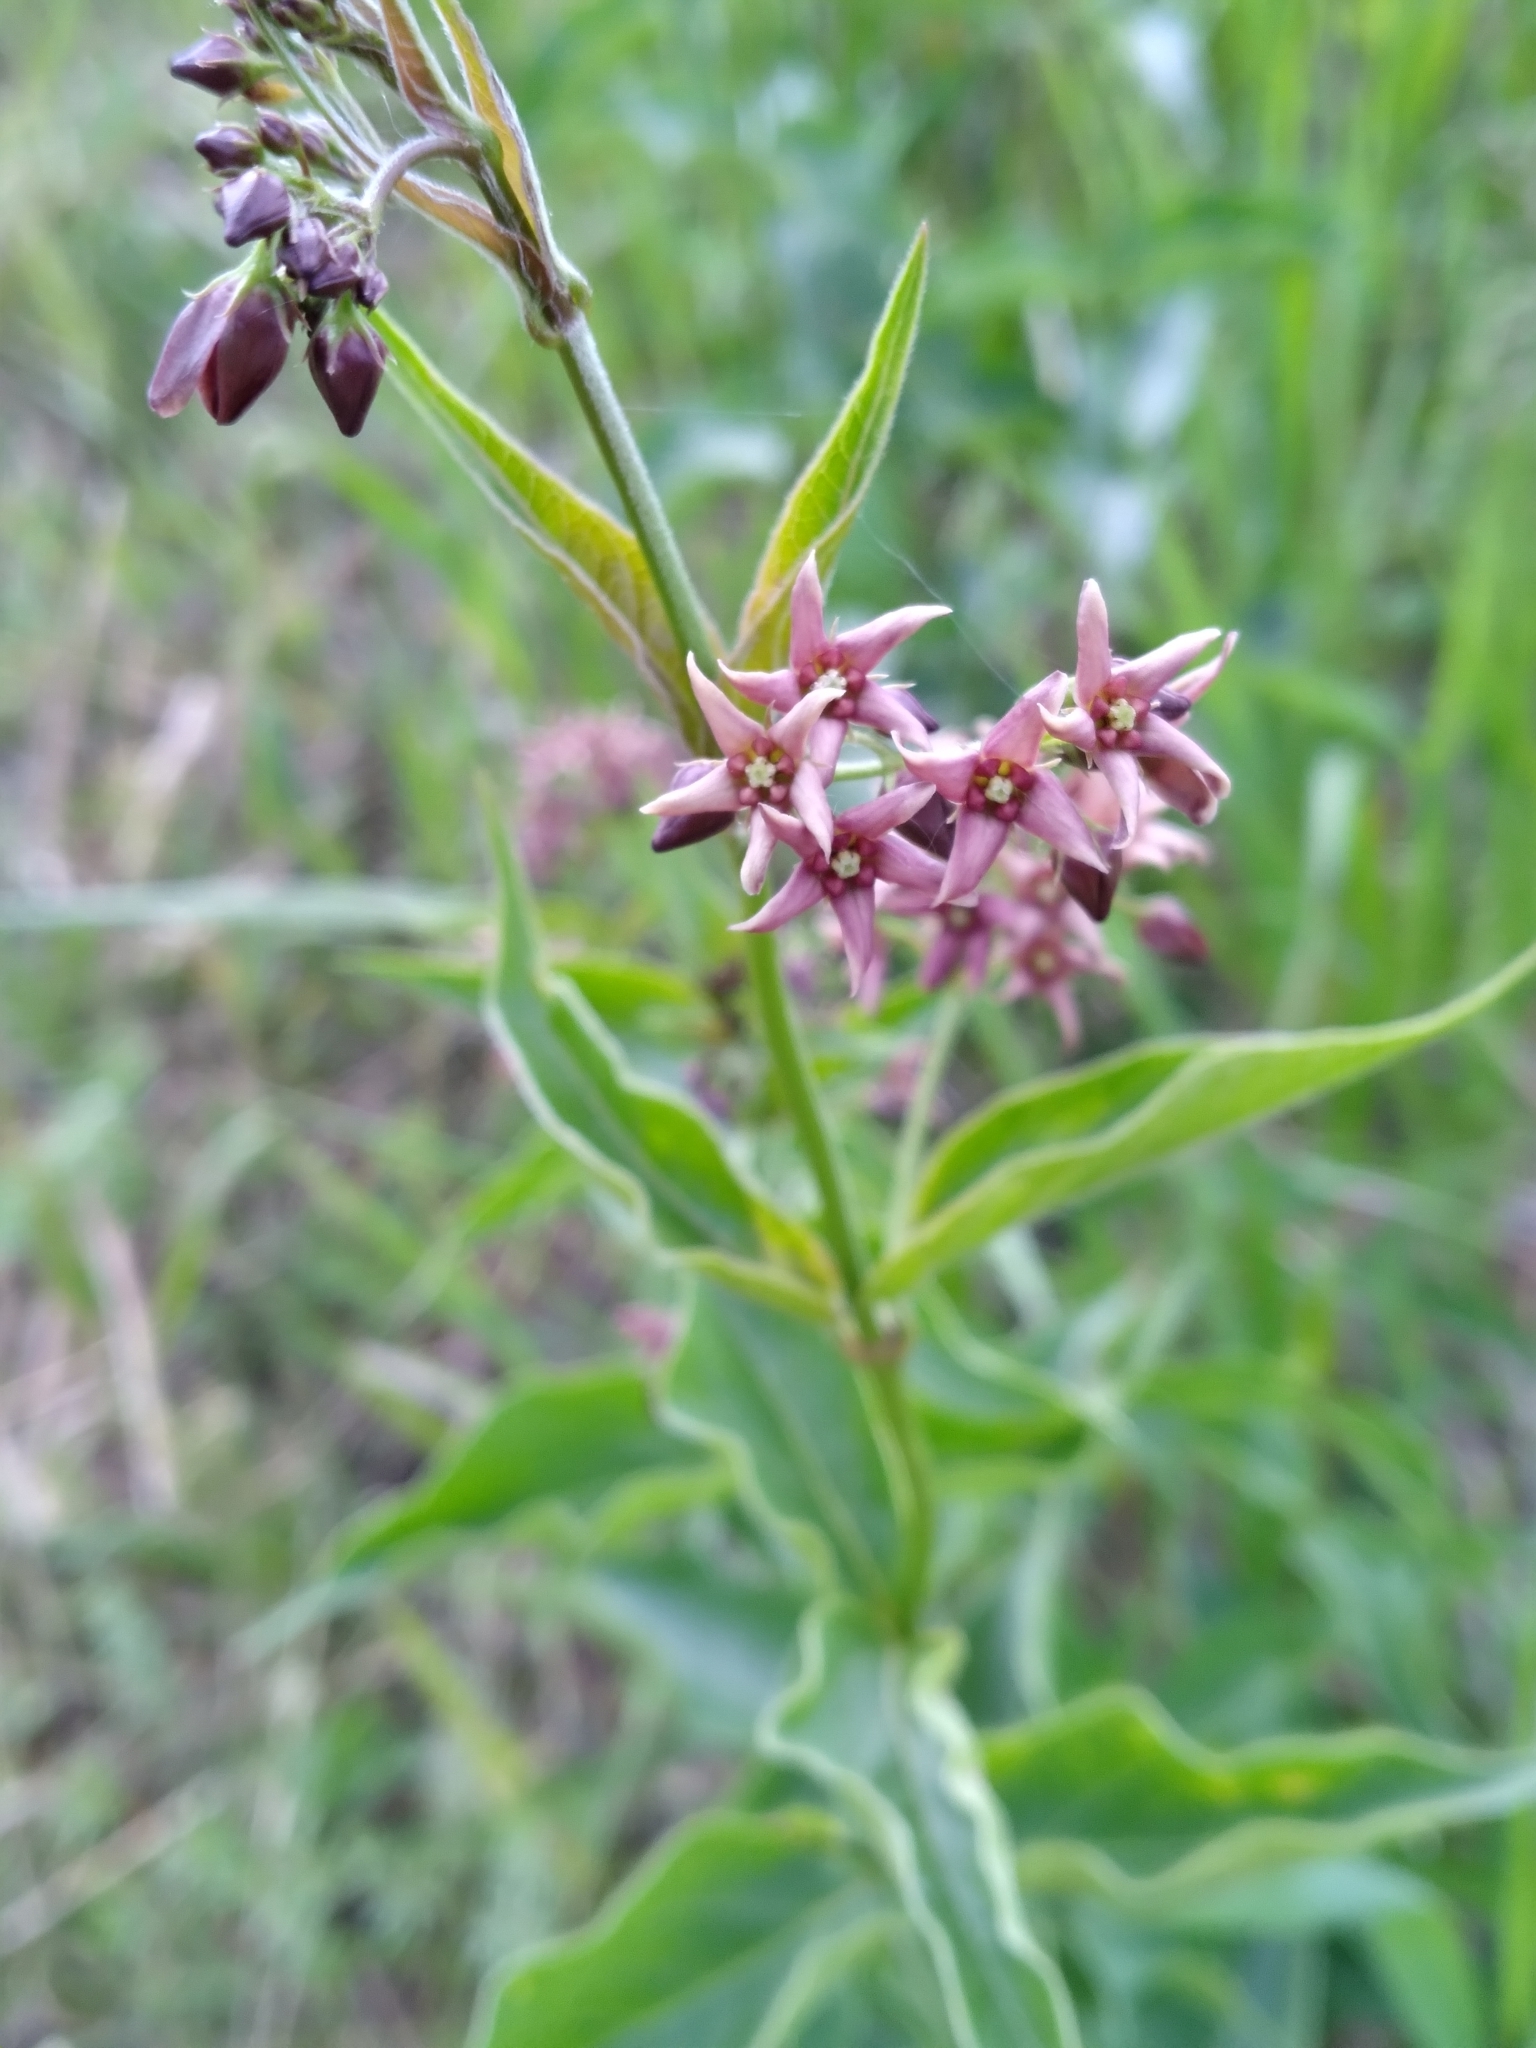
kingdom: Plantae
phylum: Tracheophyta
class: Magnoliopsida
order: Gentianales
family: Apocynaceae
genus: Vincetoxicum
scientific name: Vincetoxicum rossicum
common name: Dog-strangling vine
